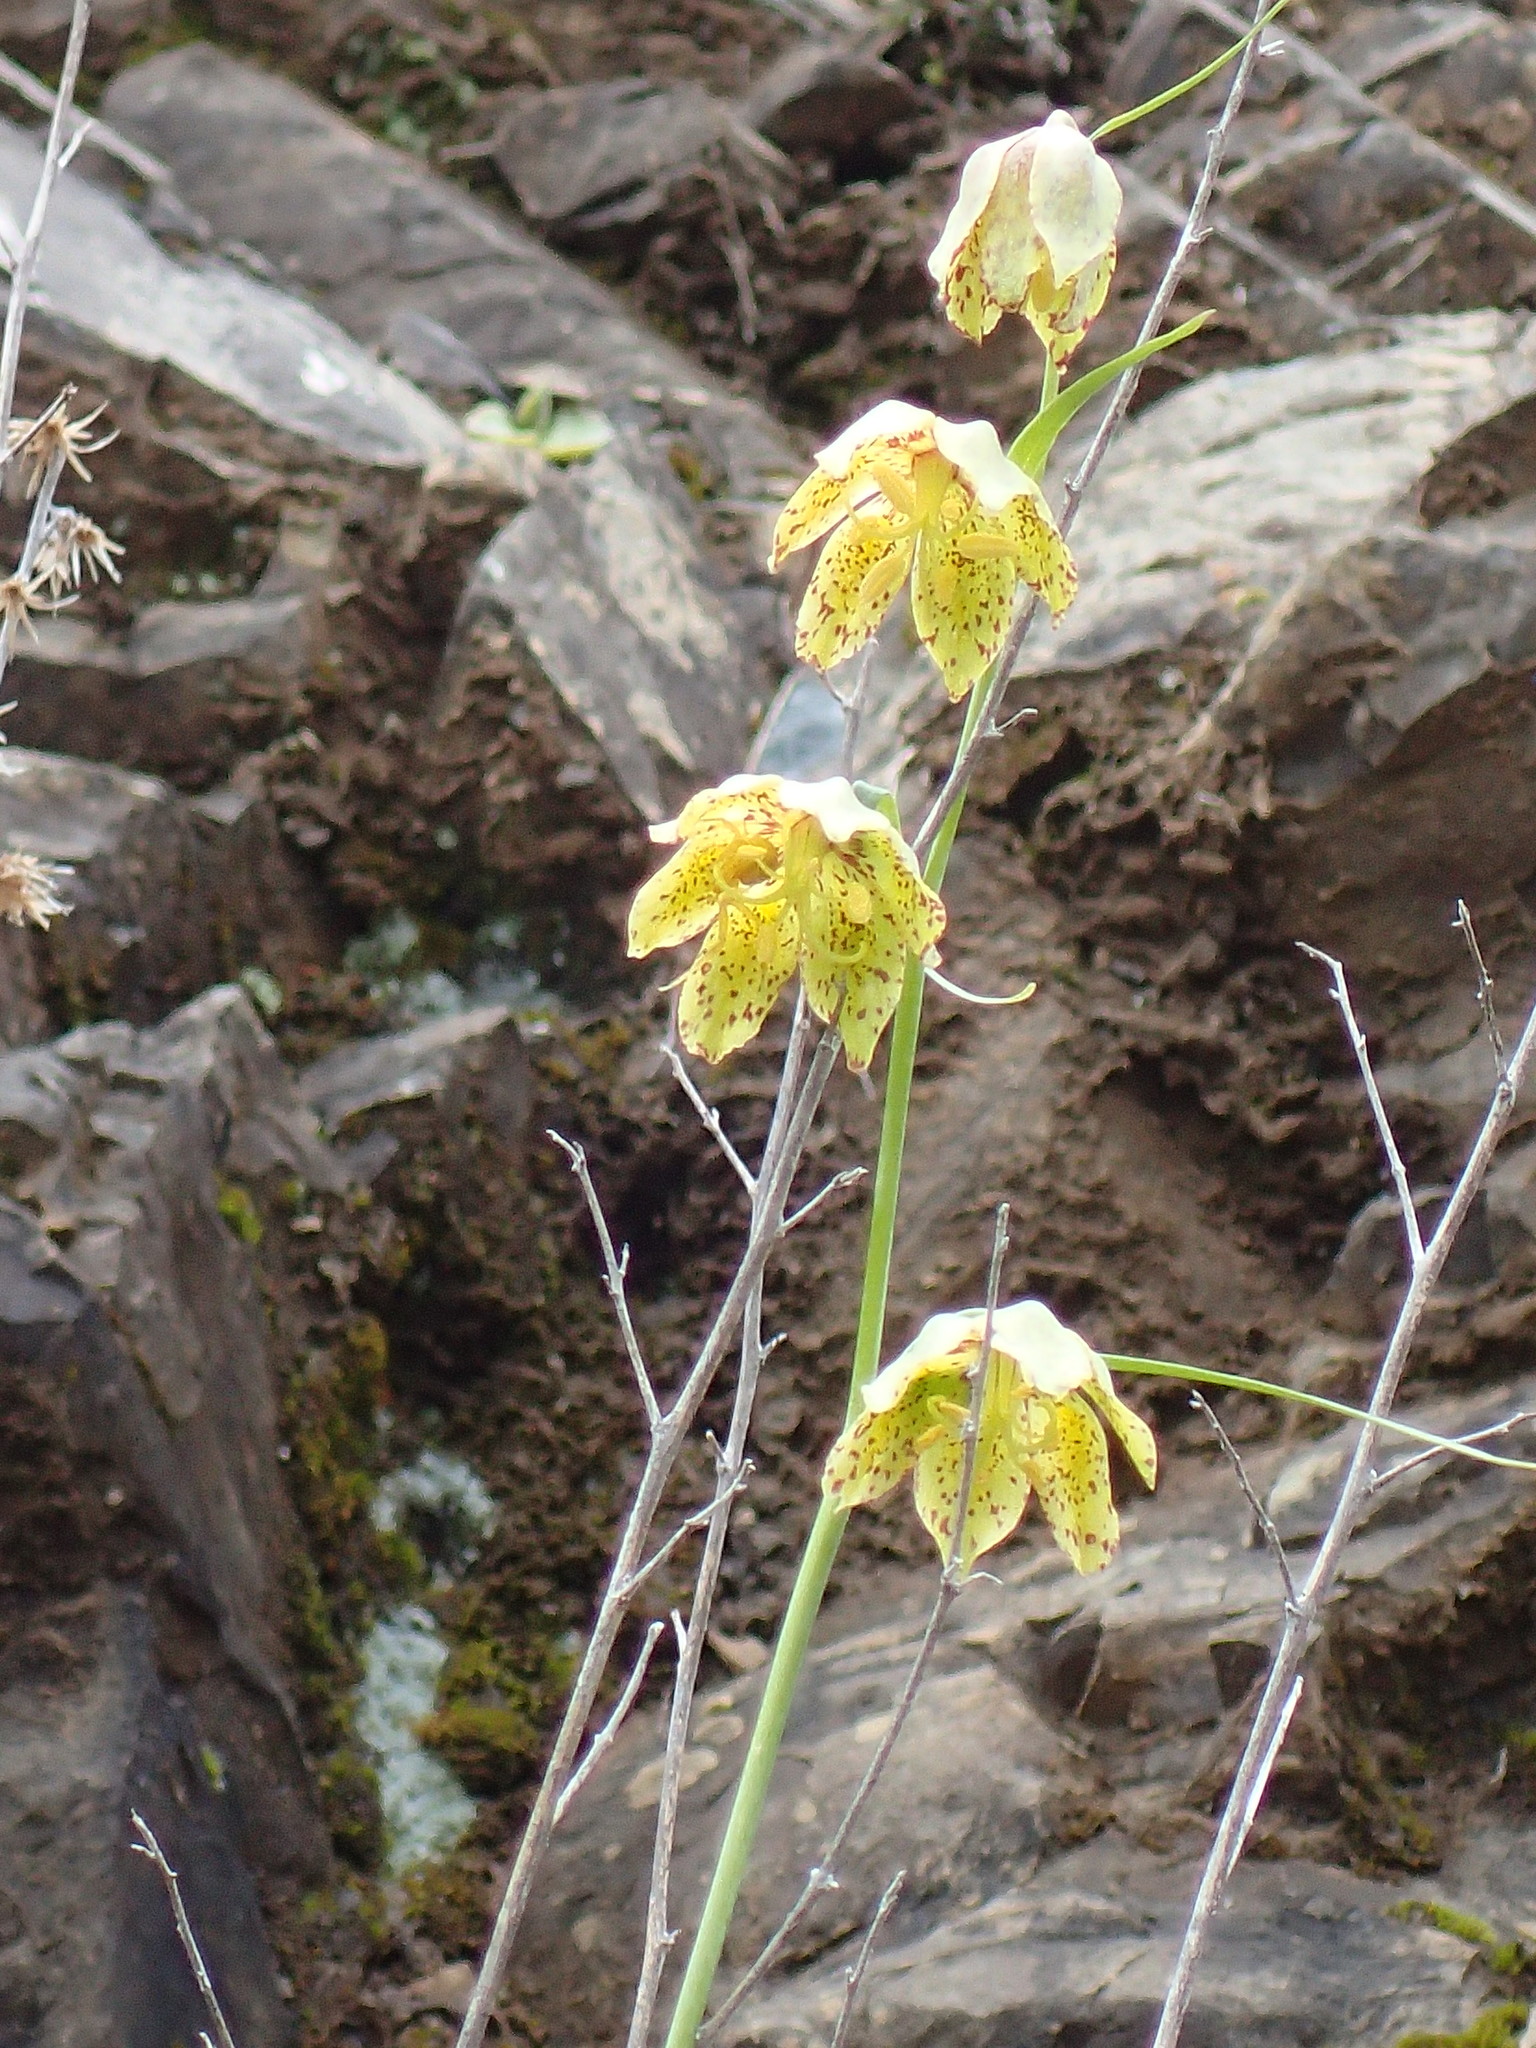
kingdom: Plantae
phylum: Tracheophyta
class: Liliopsida
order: Liliales
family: Liliaceae
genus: Fritillaria
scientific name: Fritillaria ojaiensis
